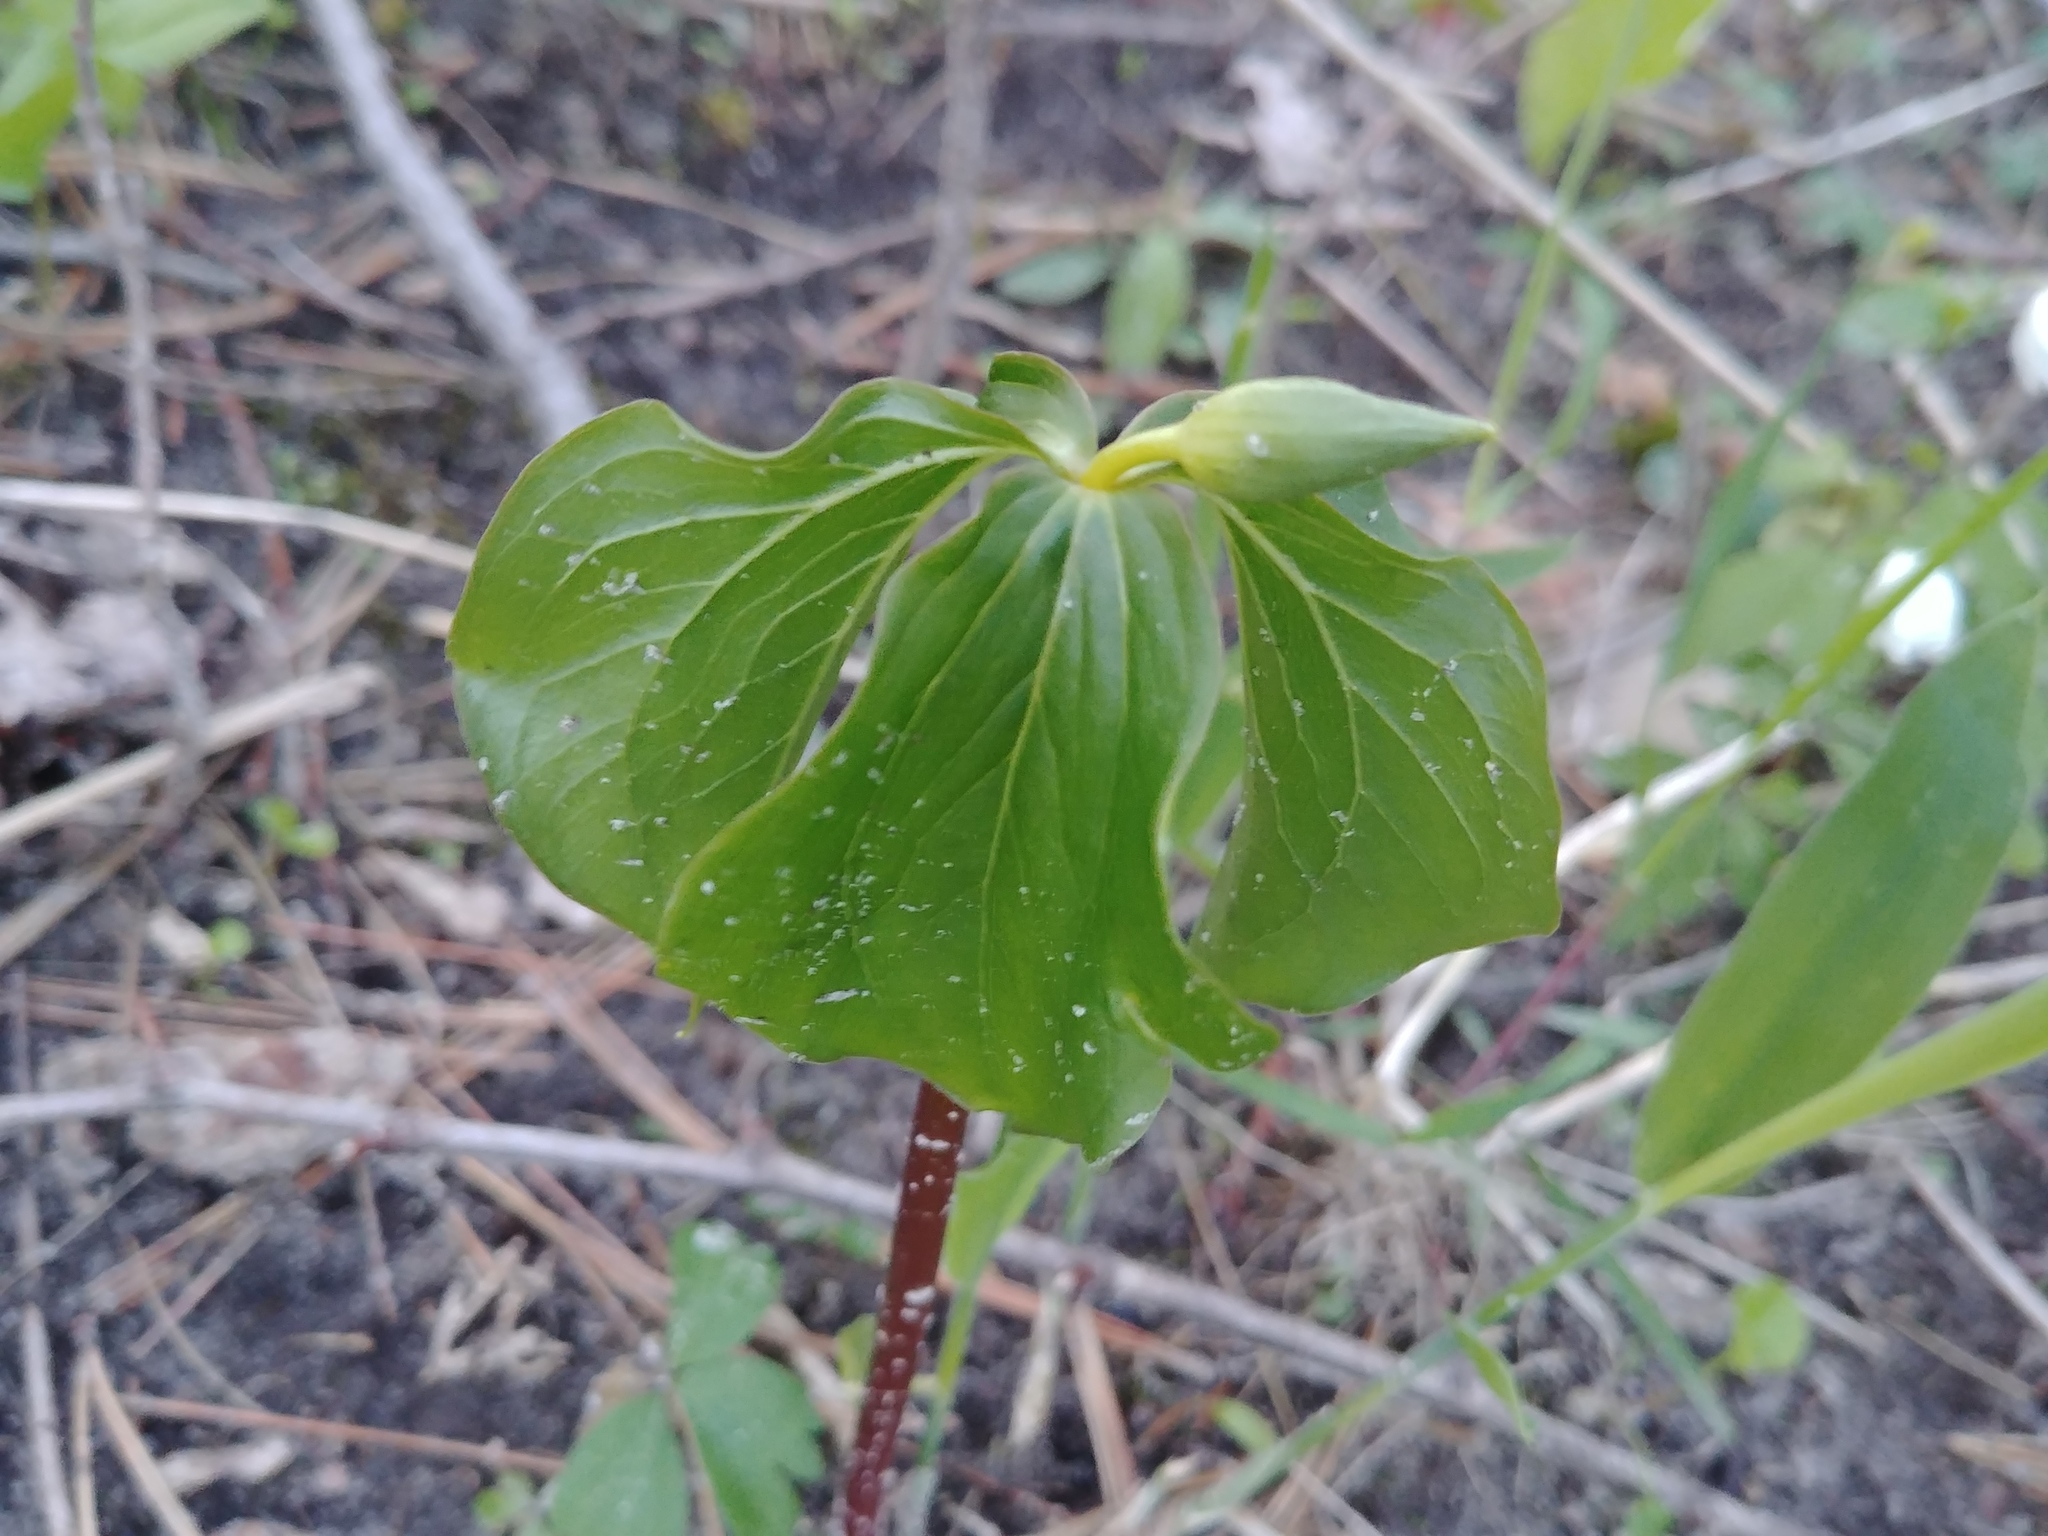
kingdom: Plantae
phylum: Tracheophyta
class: Liliopsida
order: Liliales
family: Melanthiaceae
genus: Trillium
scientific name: Trillium cernuum
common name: Nodding trillium
